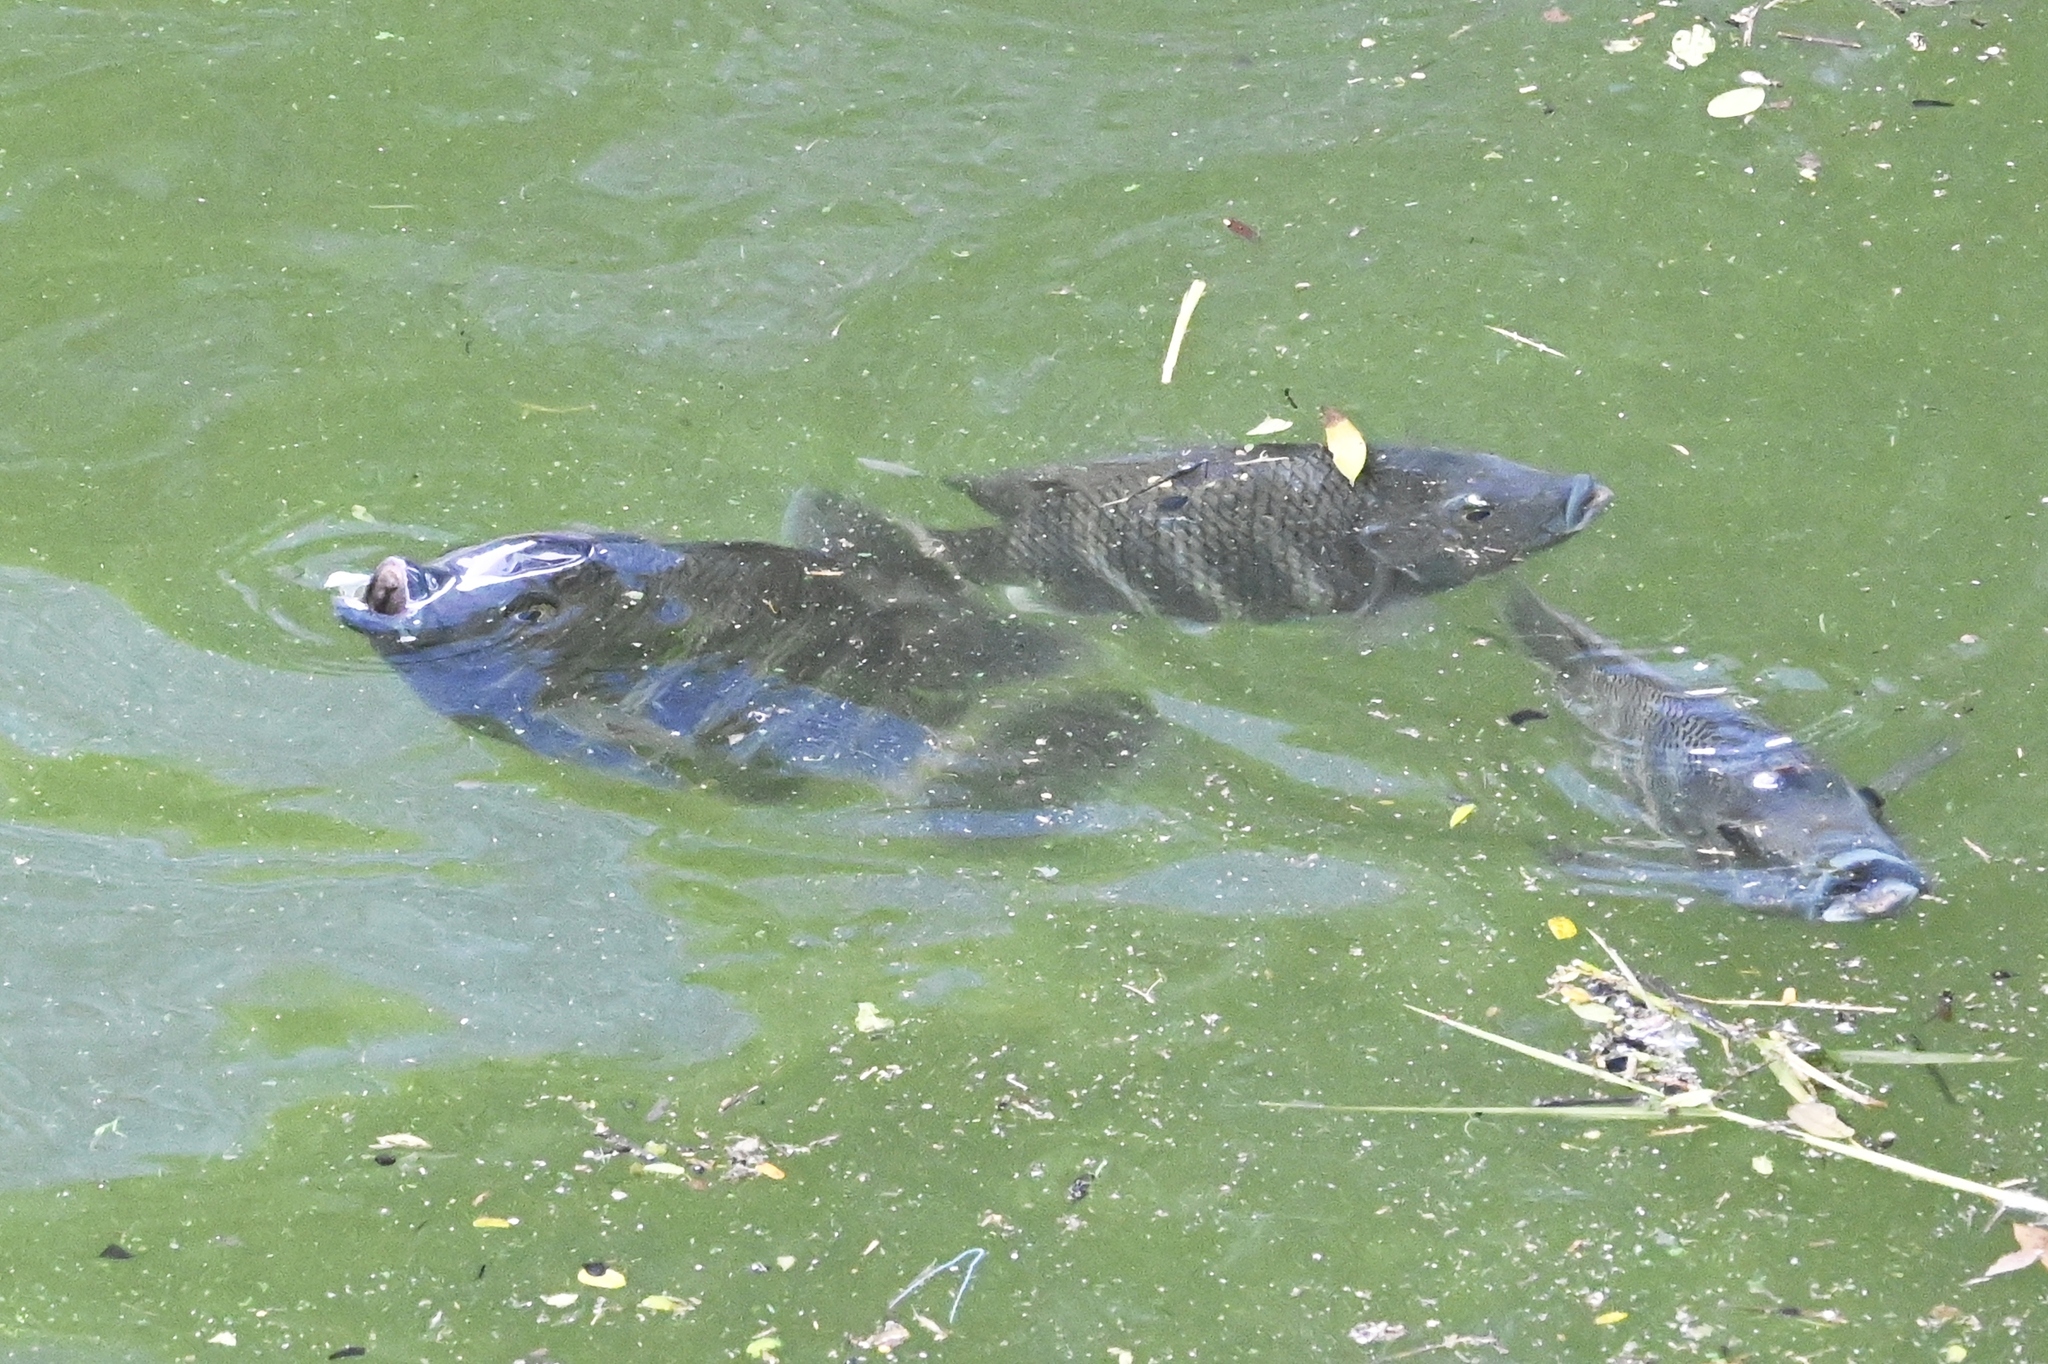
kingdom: Animalia
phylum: Chordata
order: Perciformes
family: Cichlidae
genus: Archocentrus
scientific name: Archocentrus Heterotilapia buettikoferi
